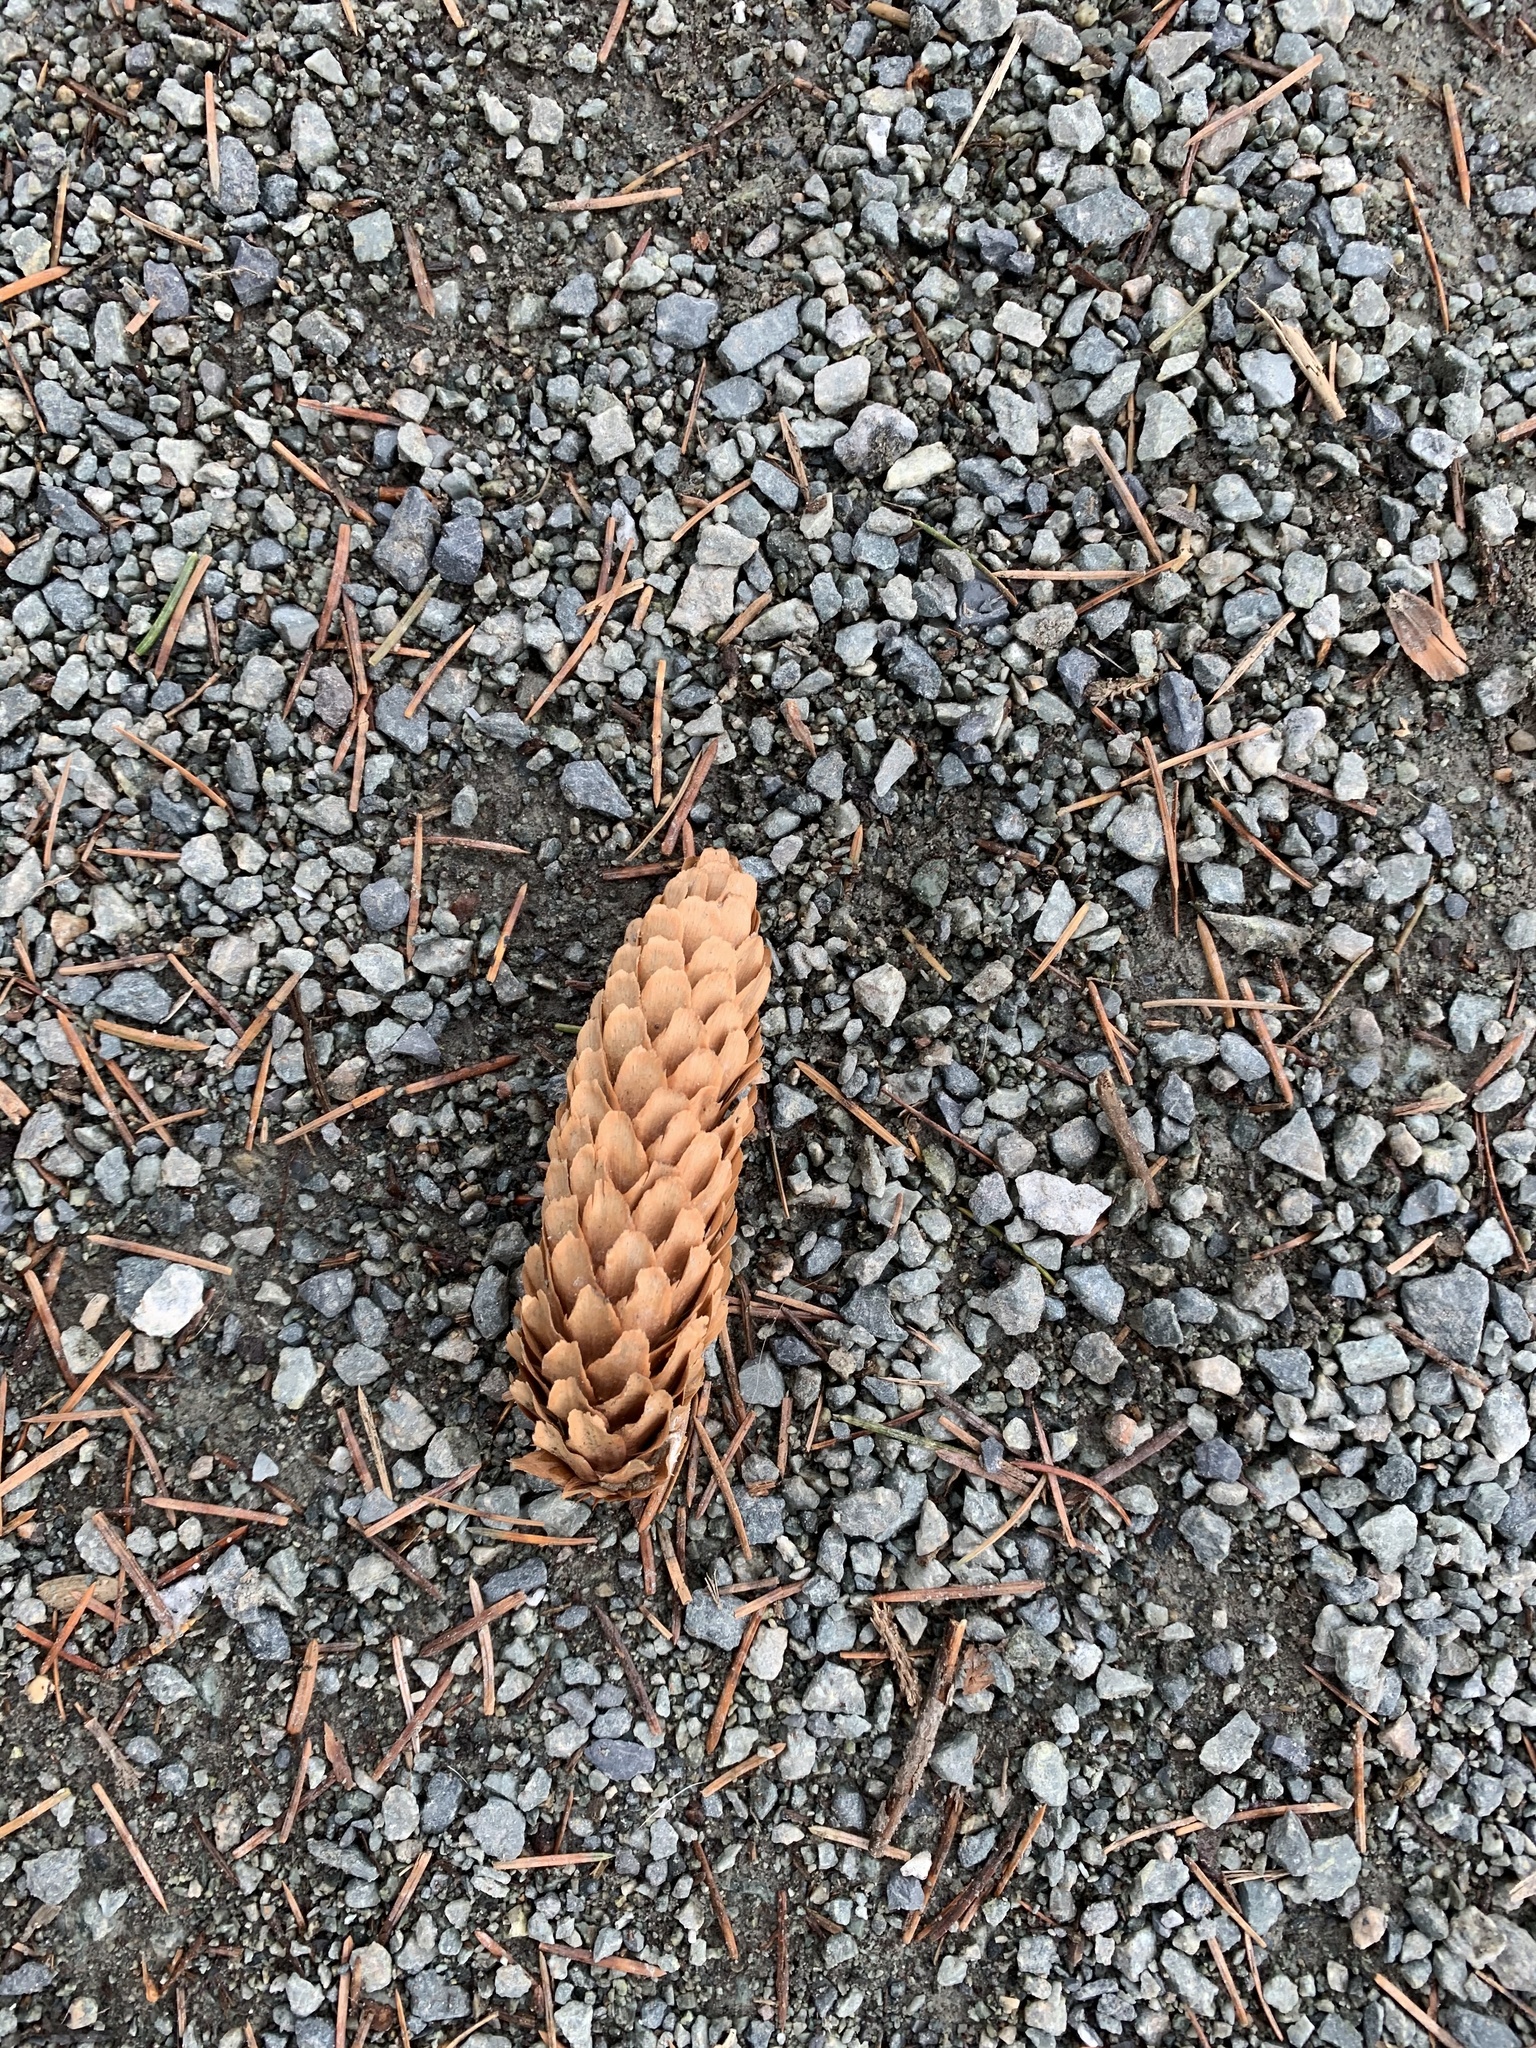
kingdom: Plantae
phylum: Tracheophyta
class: Pinopsida
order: Pinales
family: Pinaceae
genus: Picea
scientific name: Picea sitchensis
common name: Sitka spruce
